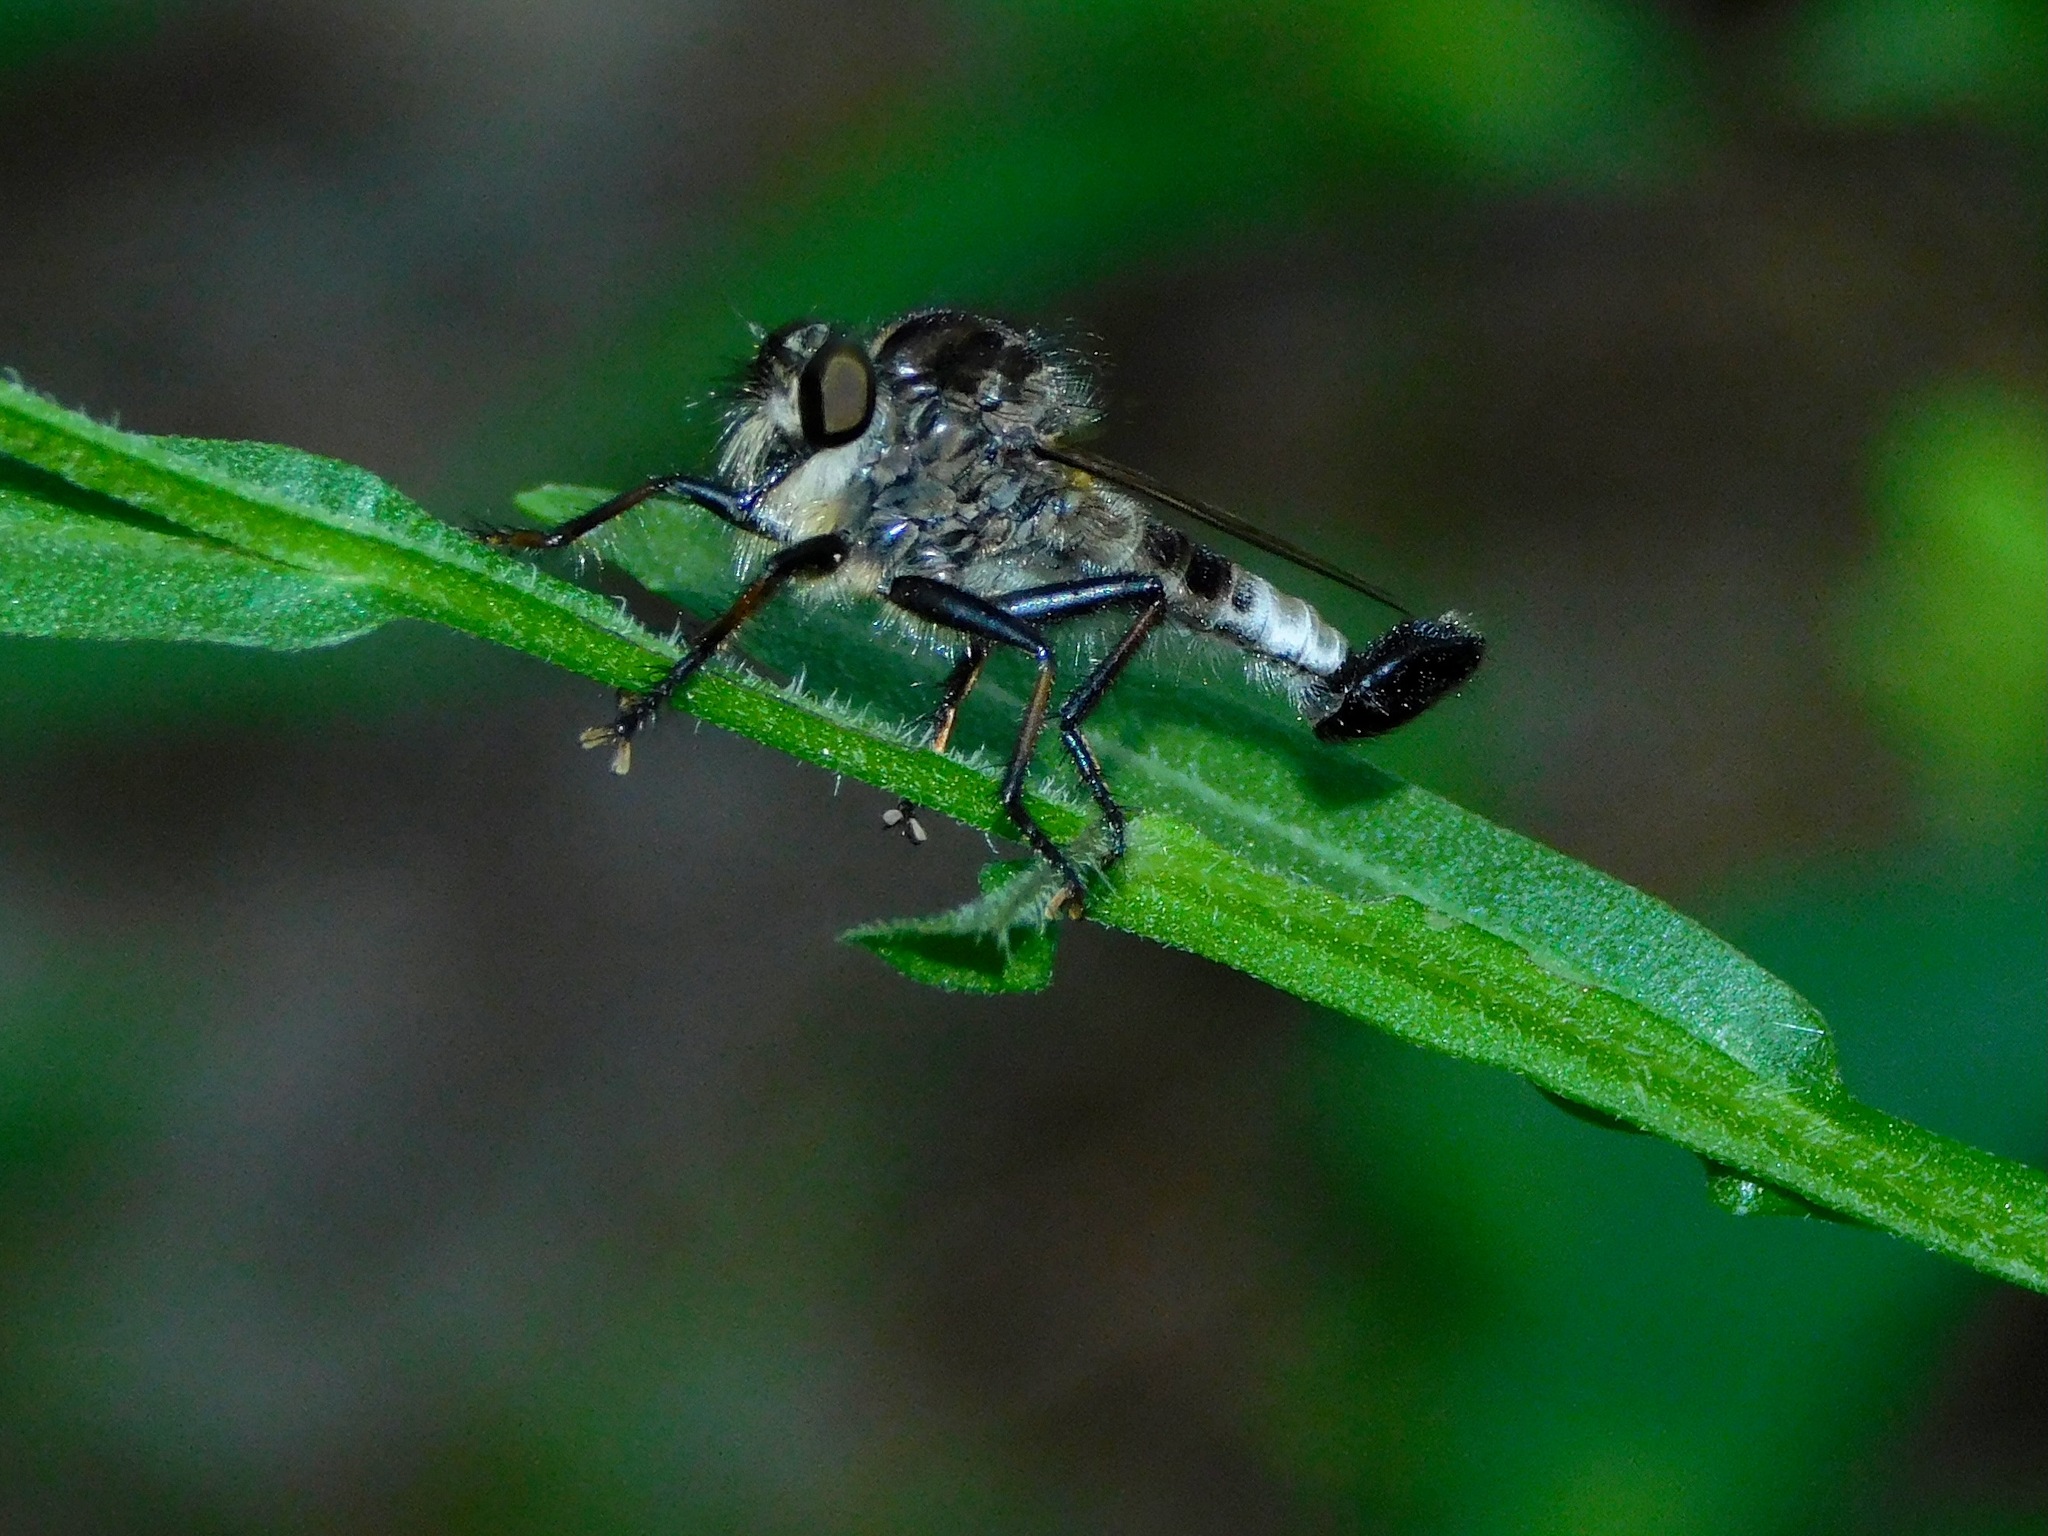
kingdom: Animalia
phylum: Arthropoda
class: Insecta
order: Diptera
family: Asilidae
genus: Efferia
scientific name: Efferia aestuans
